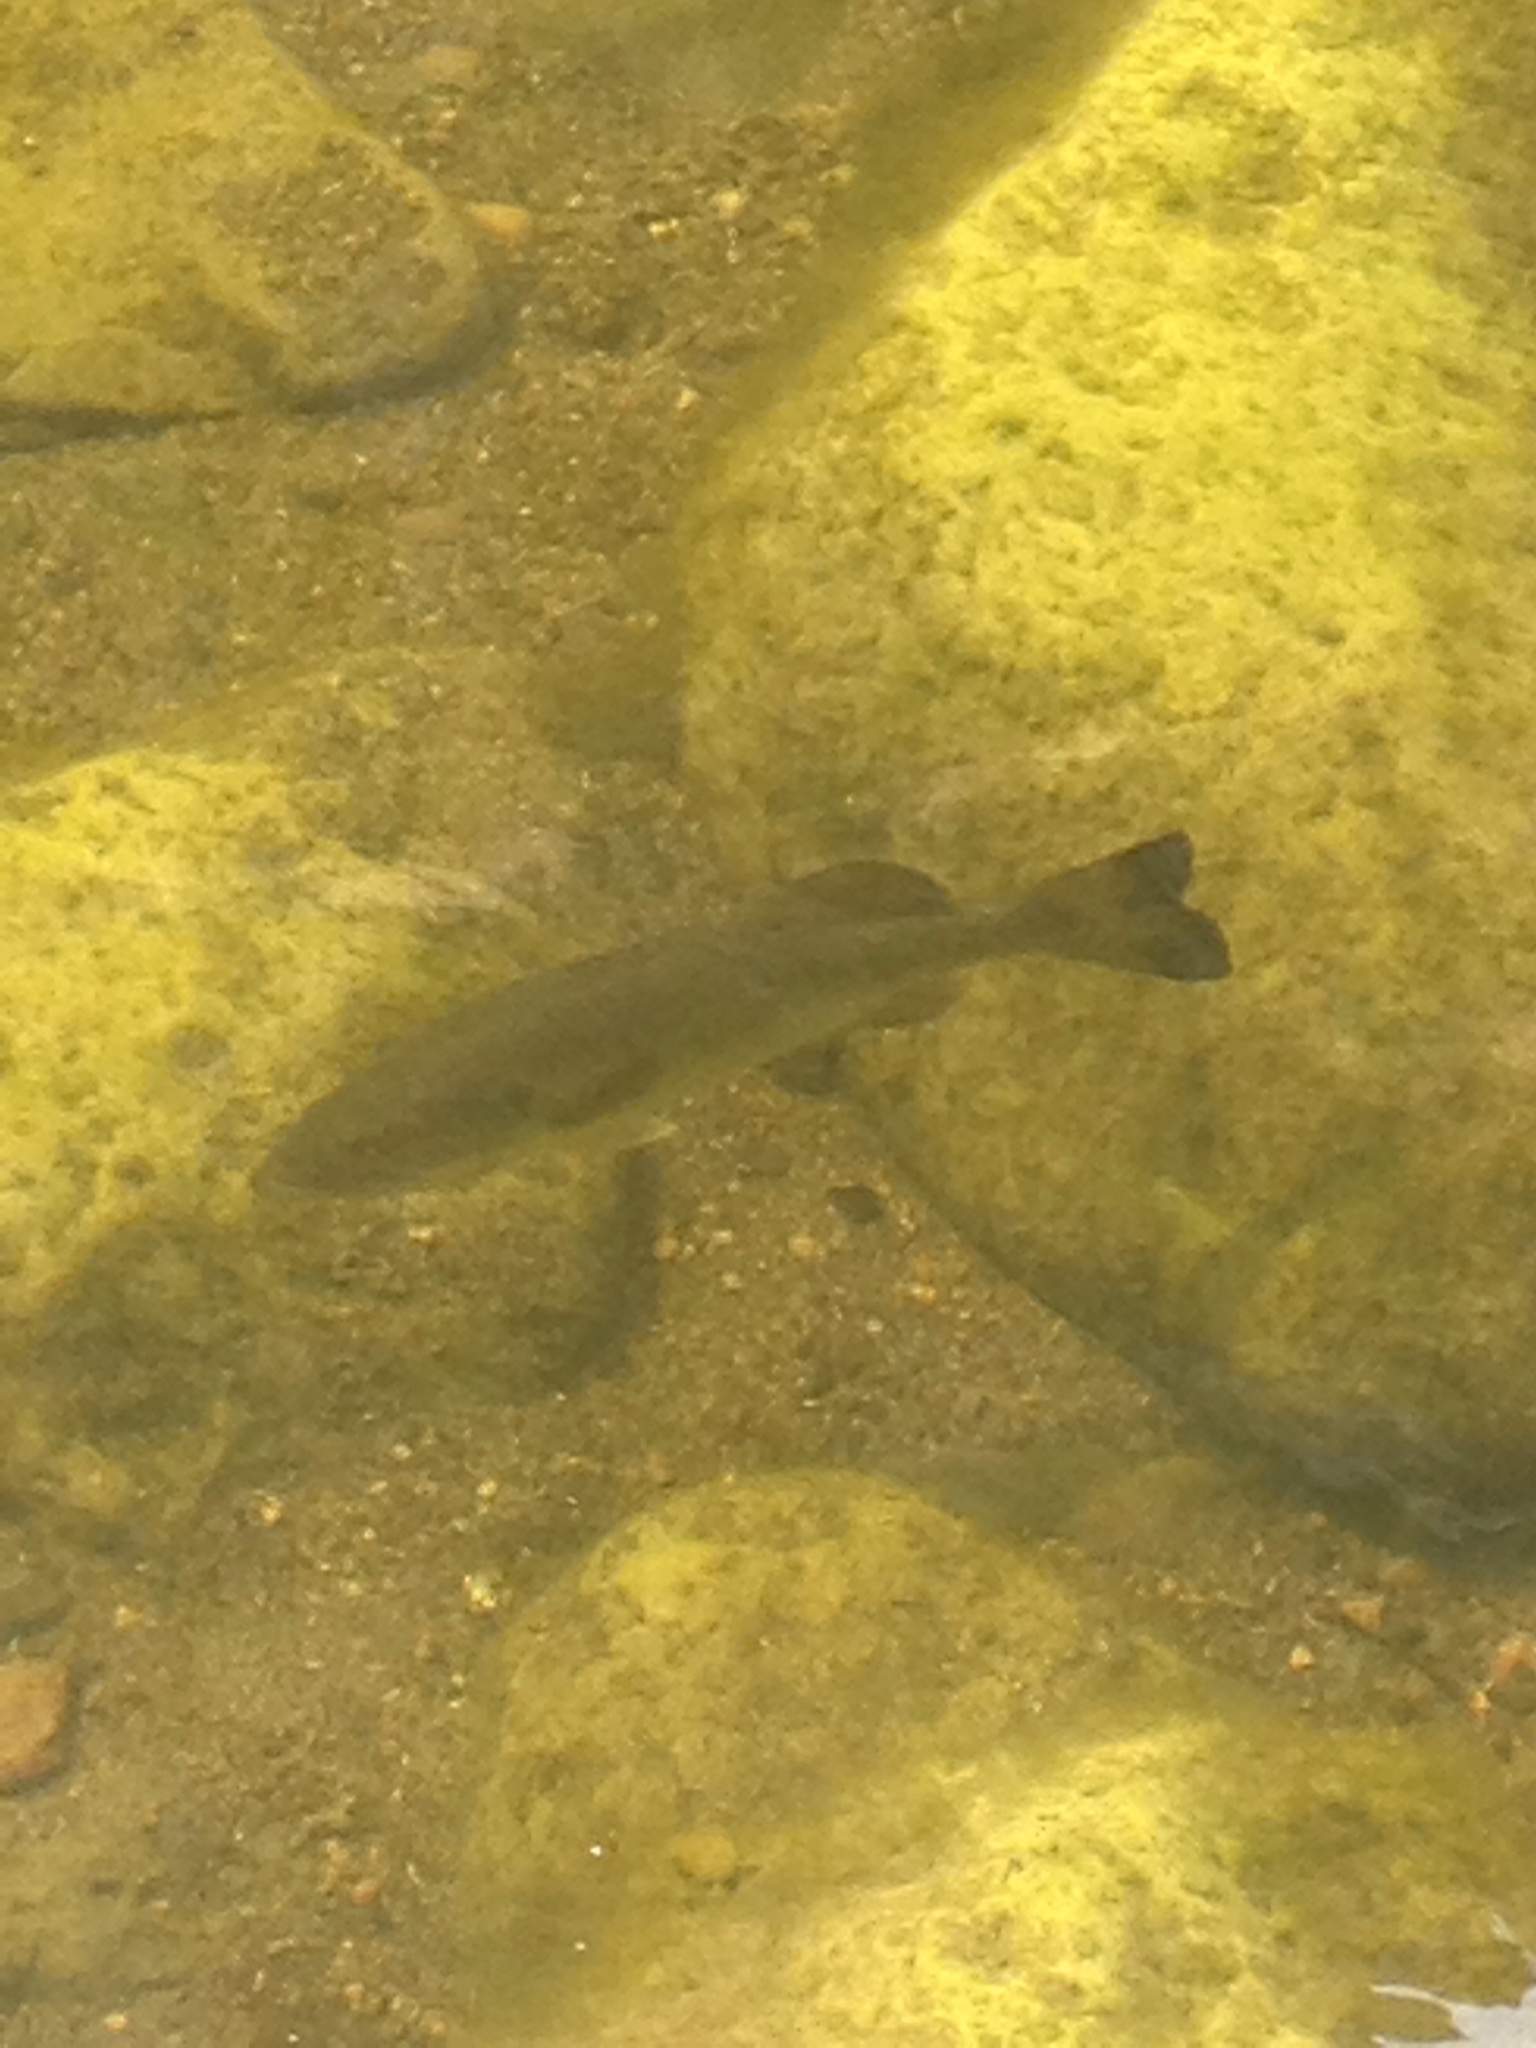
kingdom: Animalia
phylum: Chordata
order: Perciformes
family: Centrarchidae
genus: Micropterus
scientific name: Micropterus
